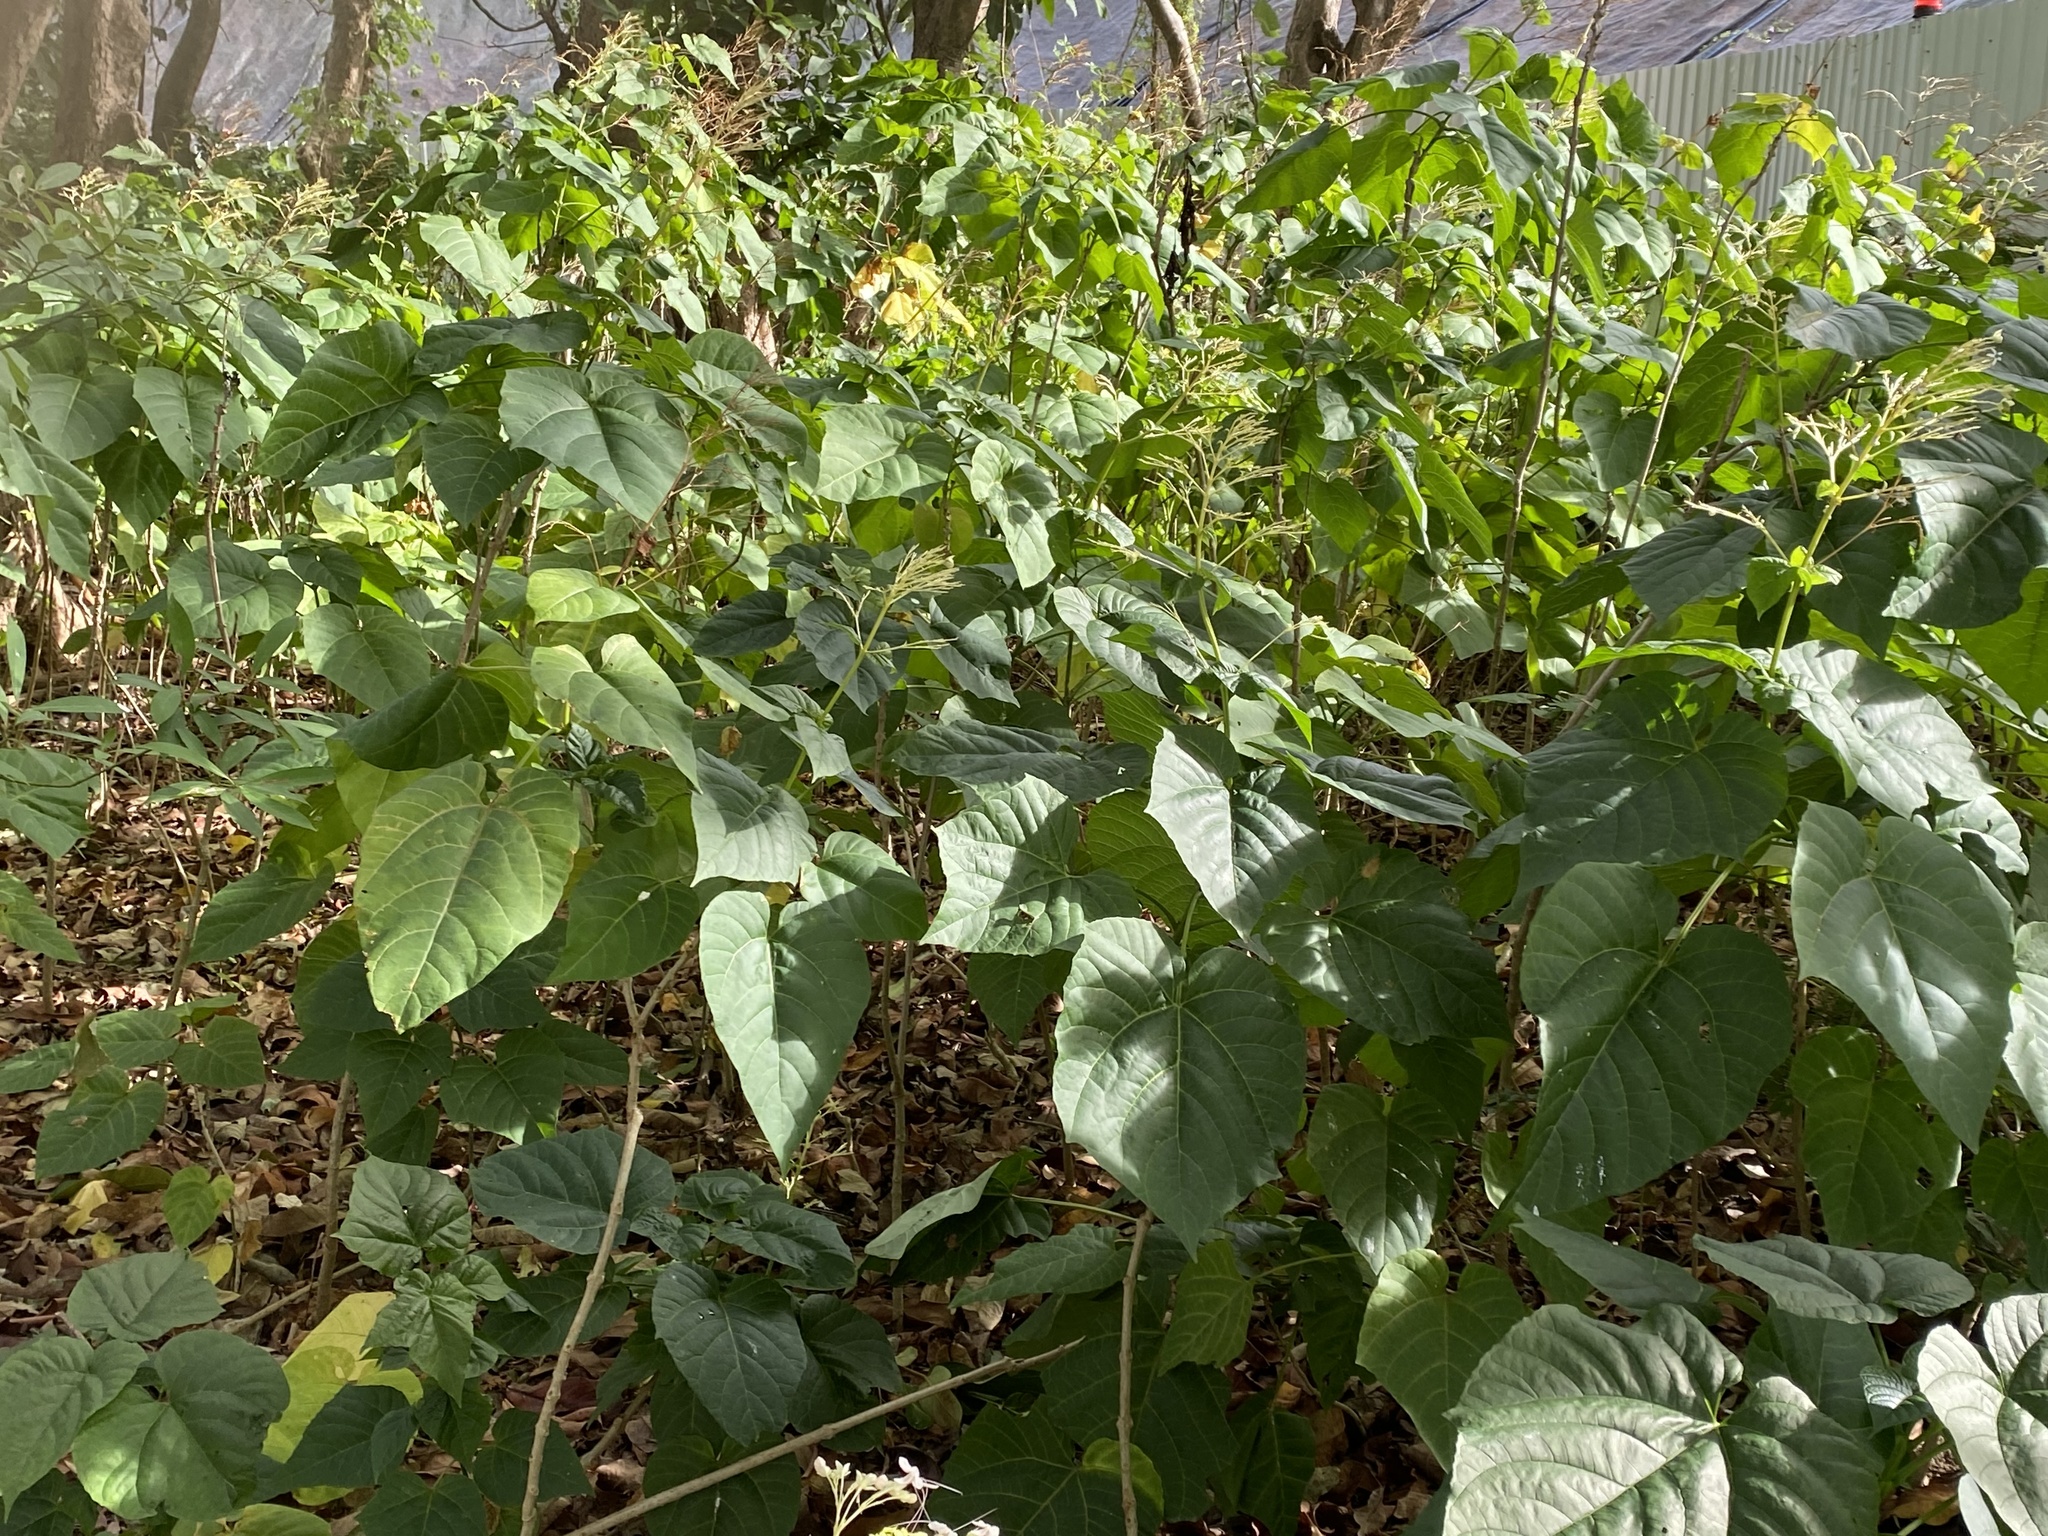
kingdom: Plantae
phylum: Tracheophyta
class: Magnoliopsida
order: Lamiales
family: Lamiaceae
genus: Clerodendrum
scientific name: Clerodendrum japonicum
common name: Japanese glorybower
